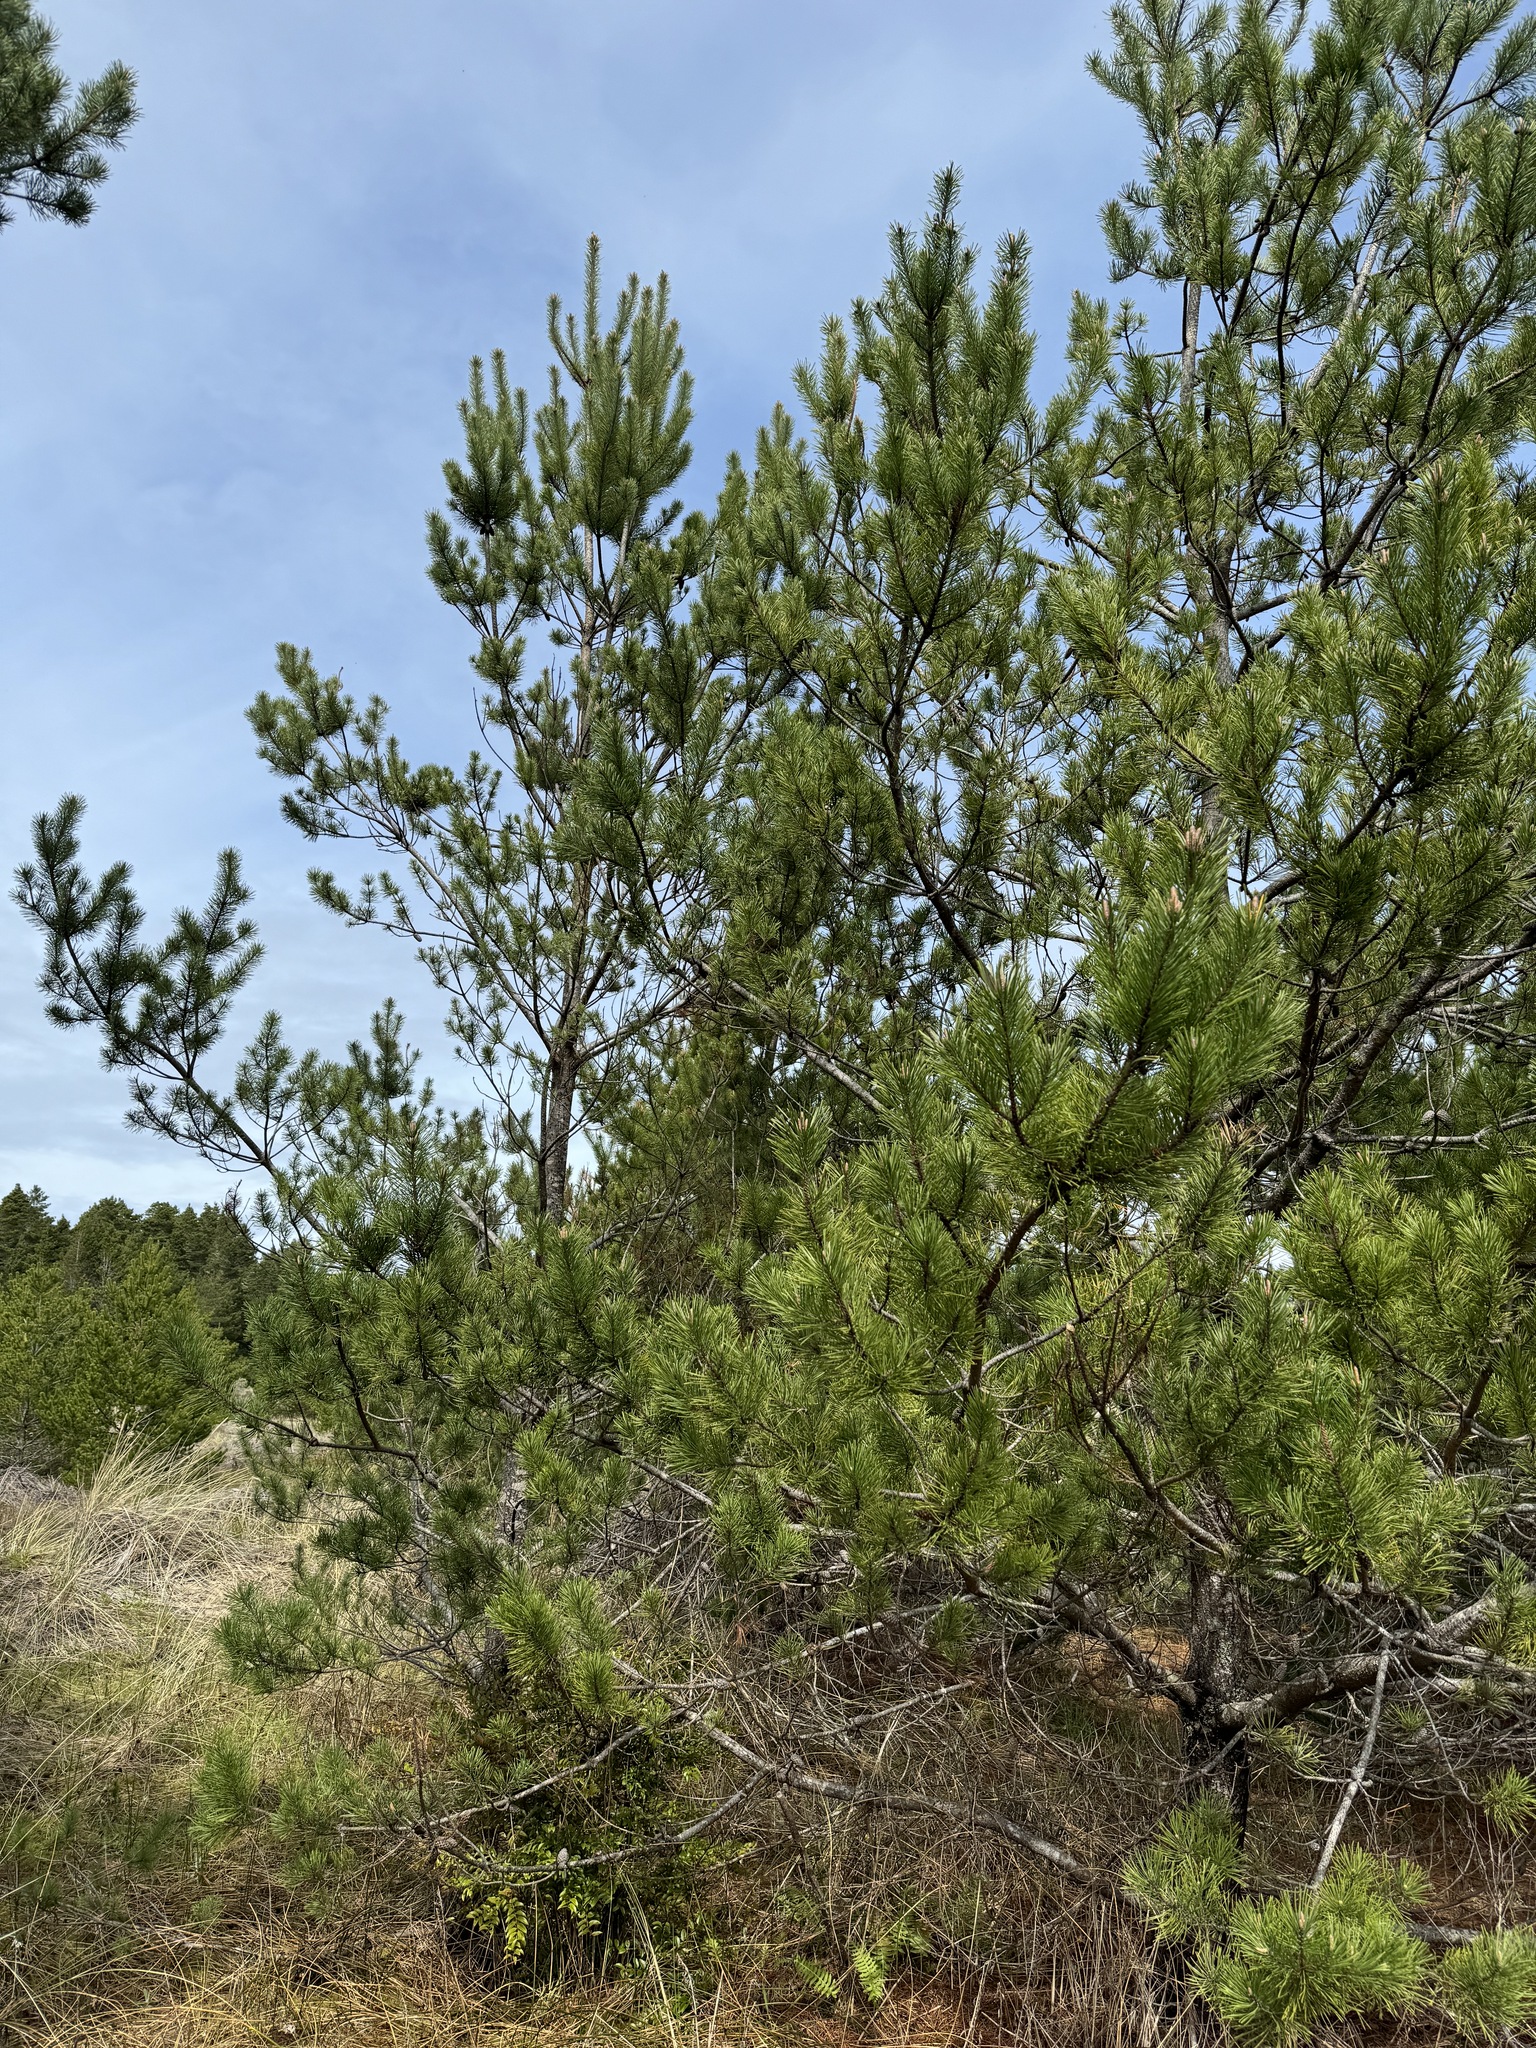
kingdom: Plantae
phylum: Tracheophyta
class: Pinopsida
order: Pinales
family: Pinaceae
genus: Pinus
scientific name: Pinus contorta
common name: Lodgepole pine
